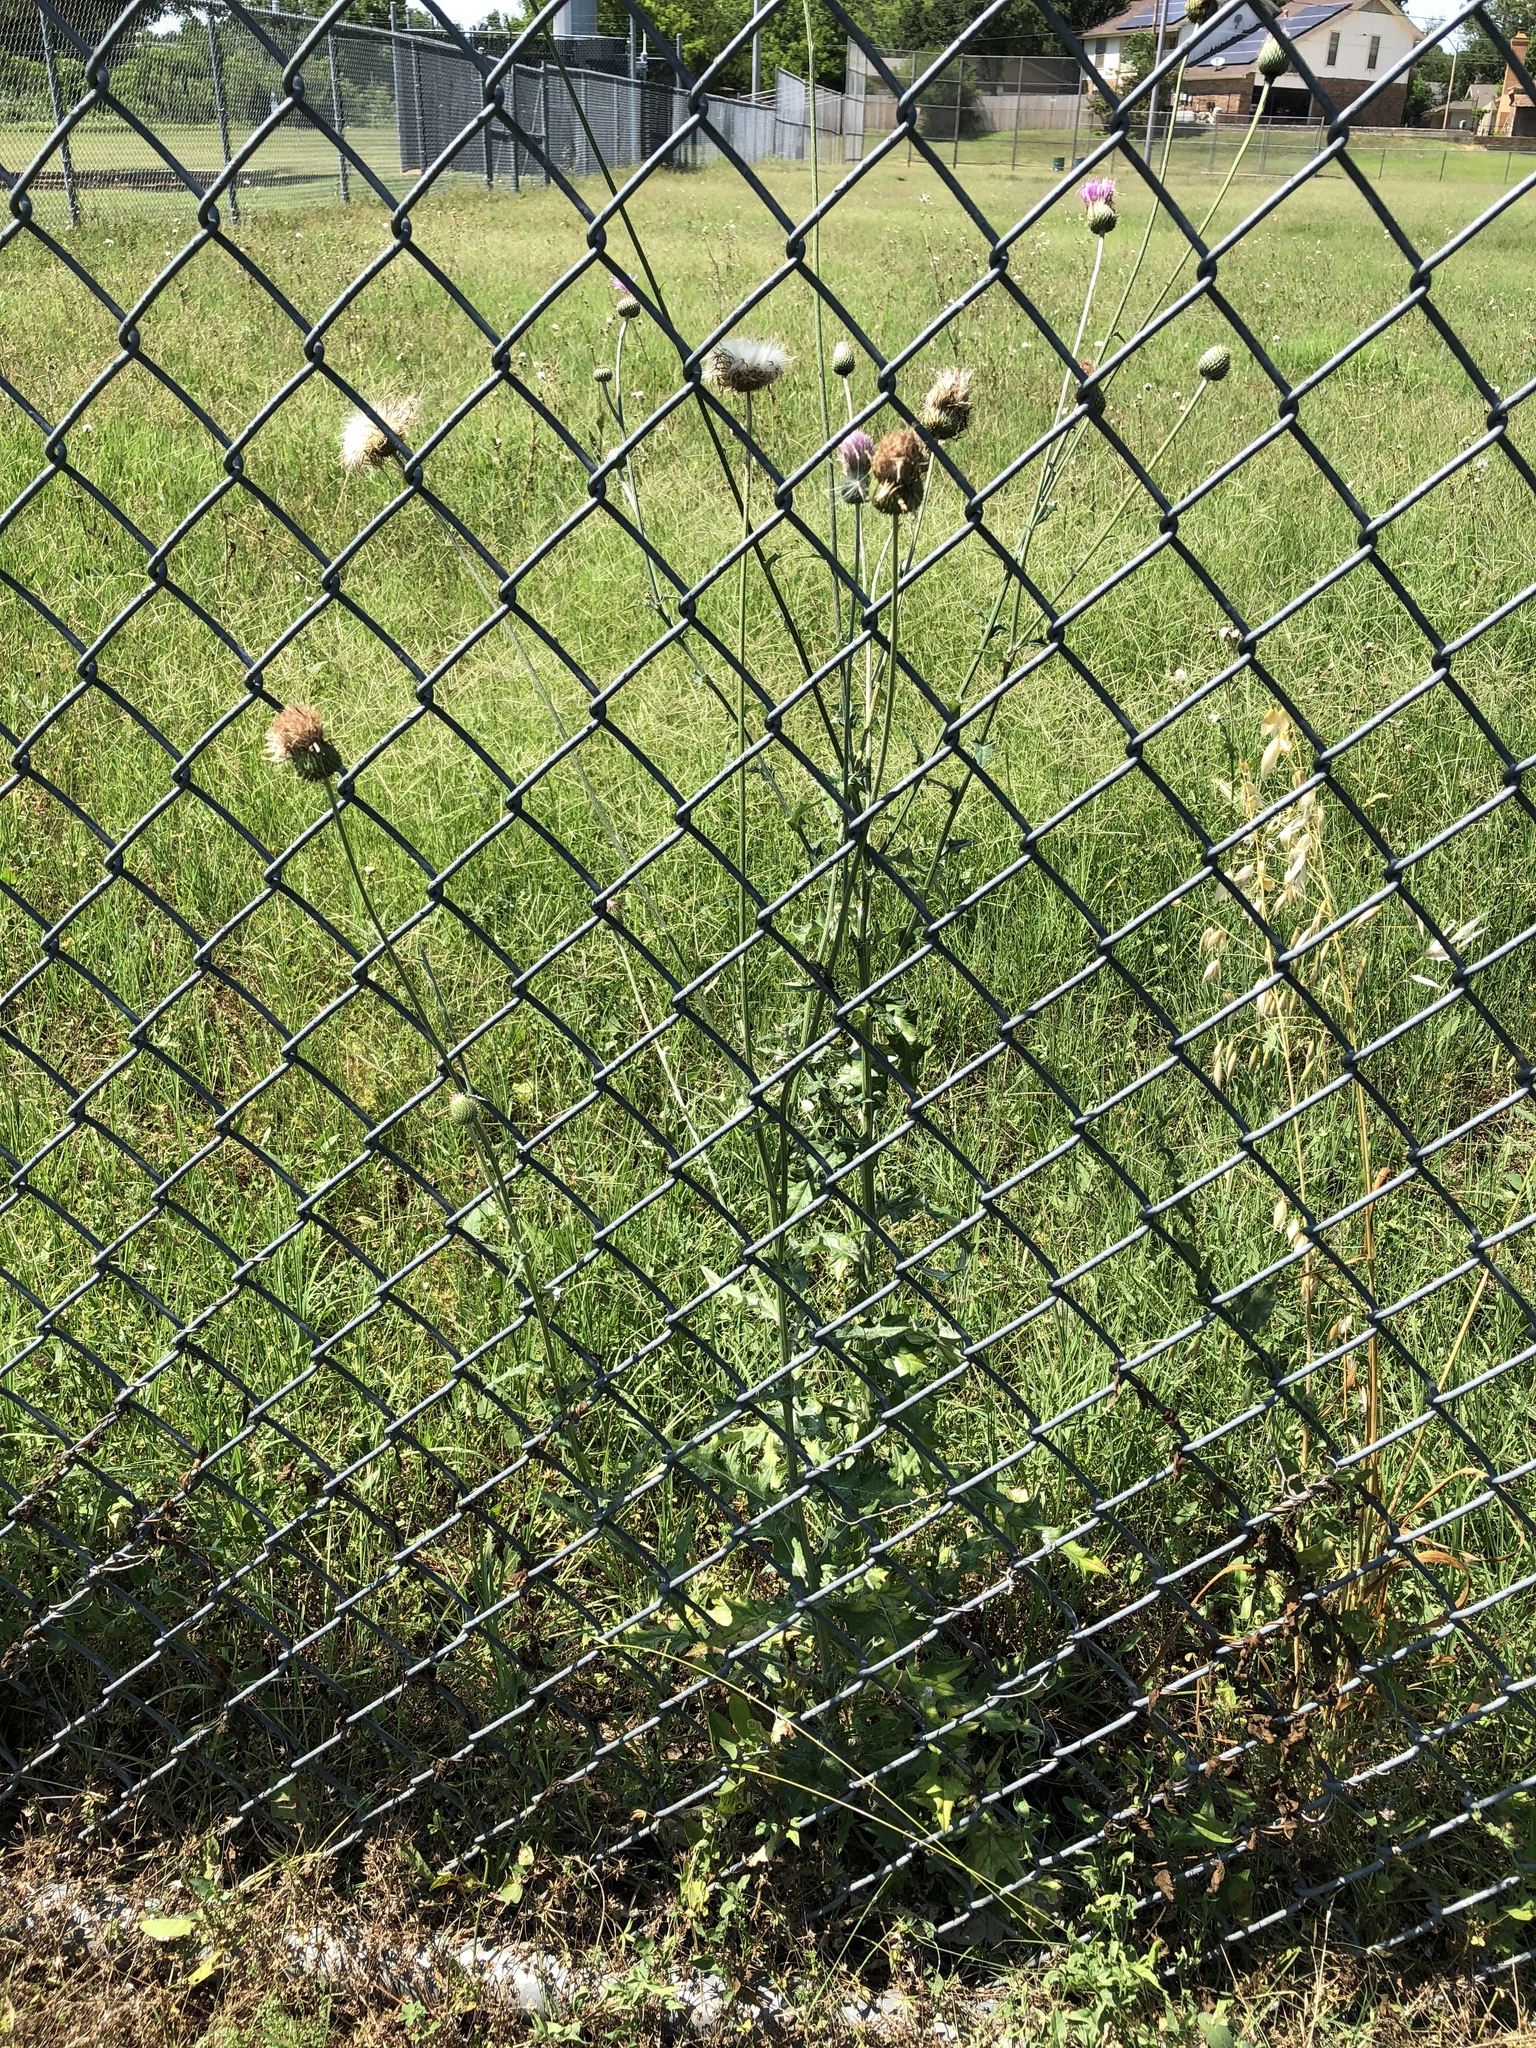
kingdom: Plantae
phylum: Tracheophyta
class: Magnoliopsida
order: Asterales
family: Asteraceae
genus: Cirsium
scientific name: Cirsium texanum
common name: Texas purple thistle
